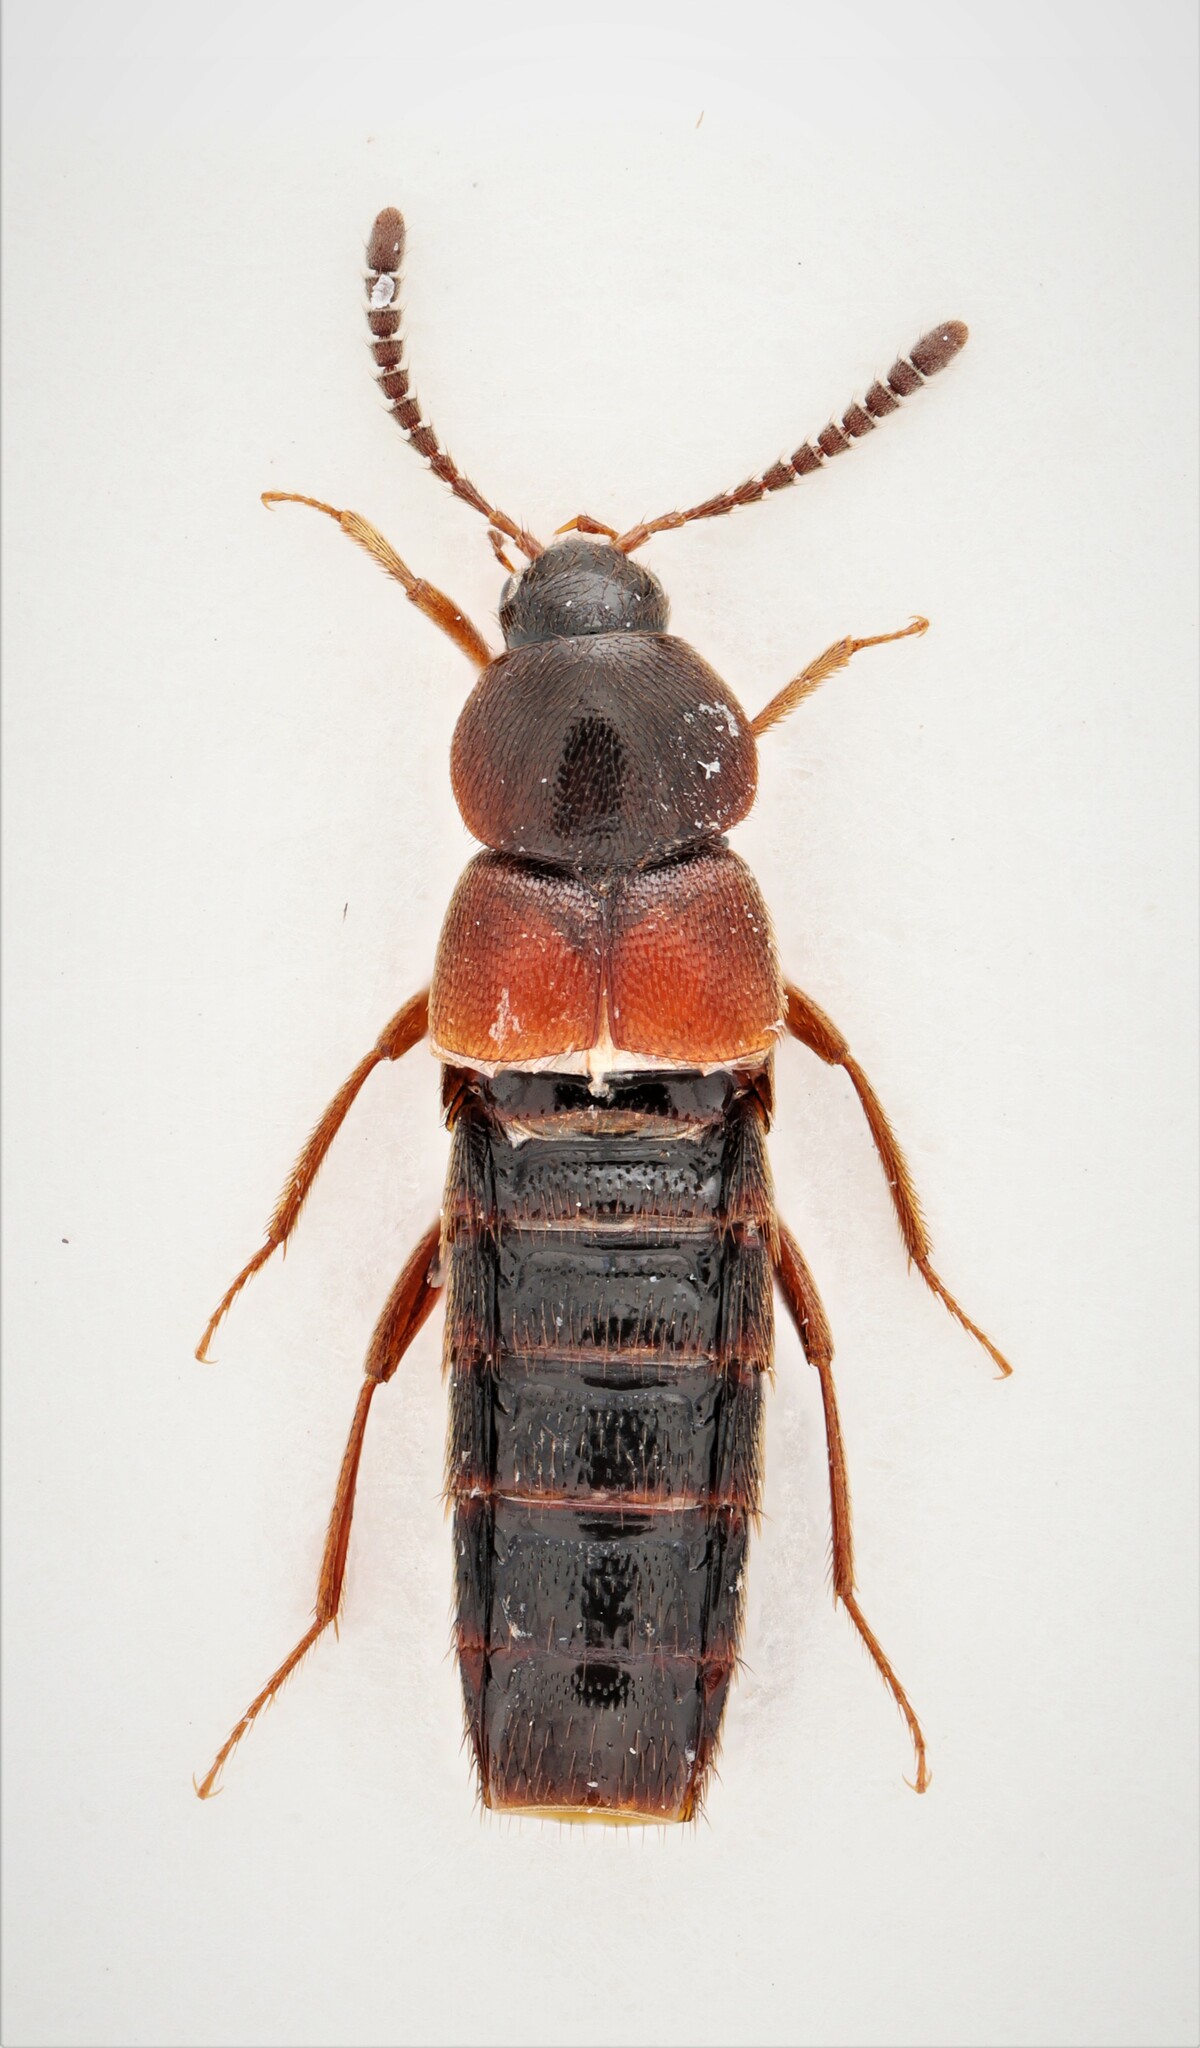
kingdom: Animalia
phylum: Arthropoda
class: Insecta
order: Coleoptera
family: Staphylinidae
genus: Aleochara
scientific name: Aleochara thoracica
